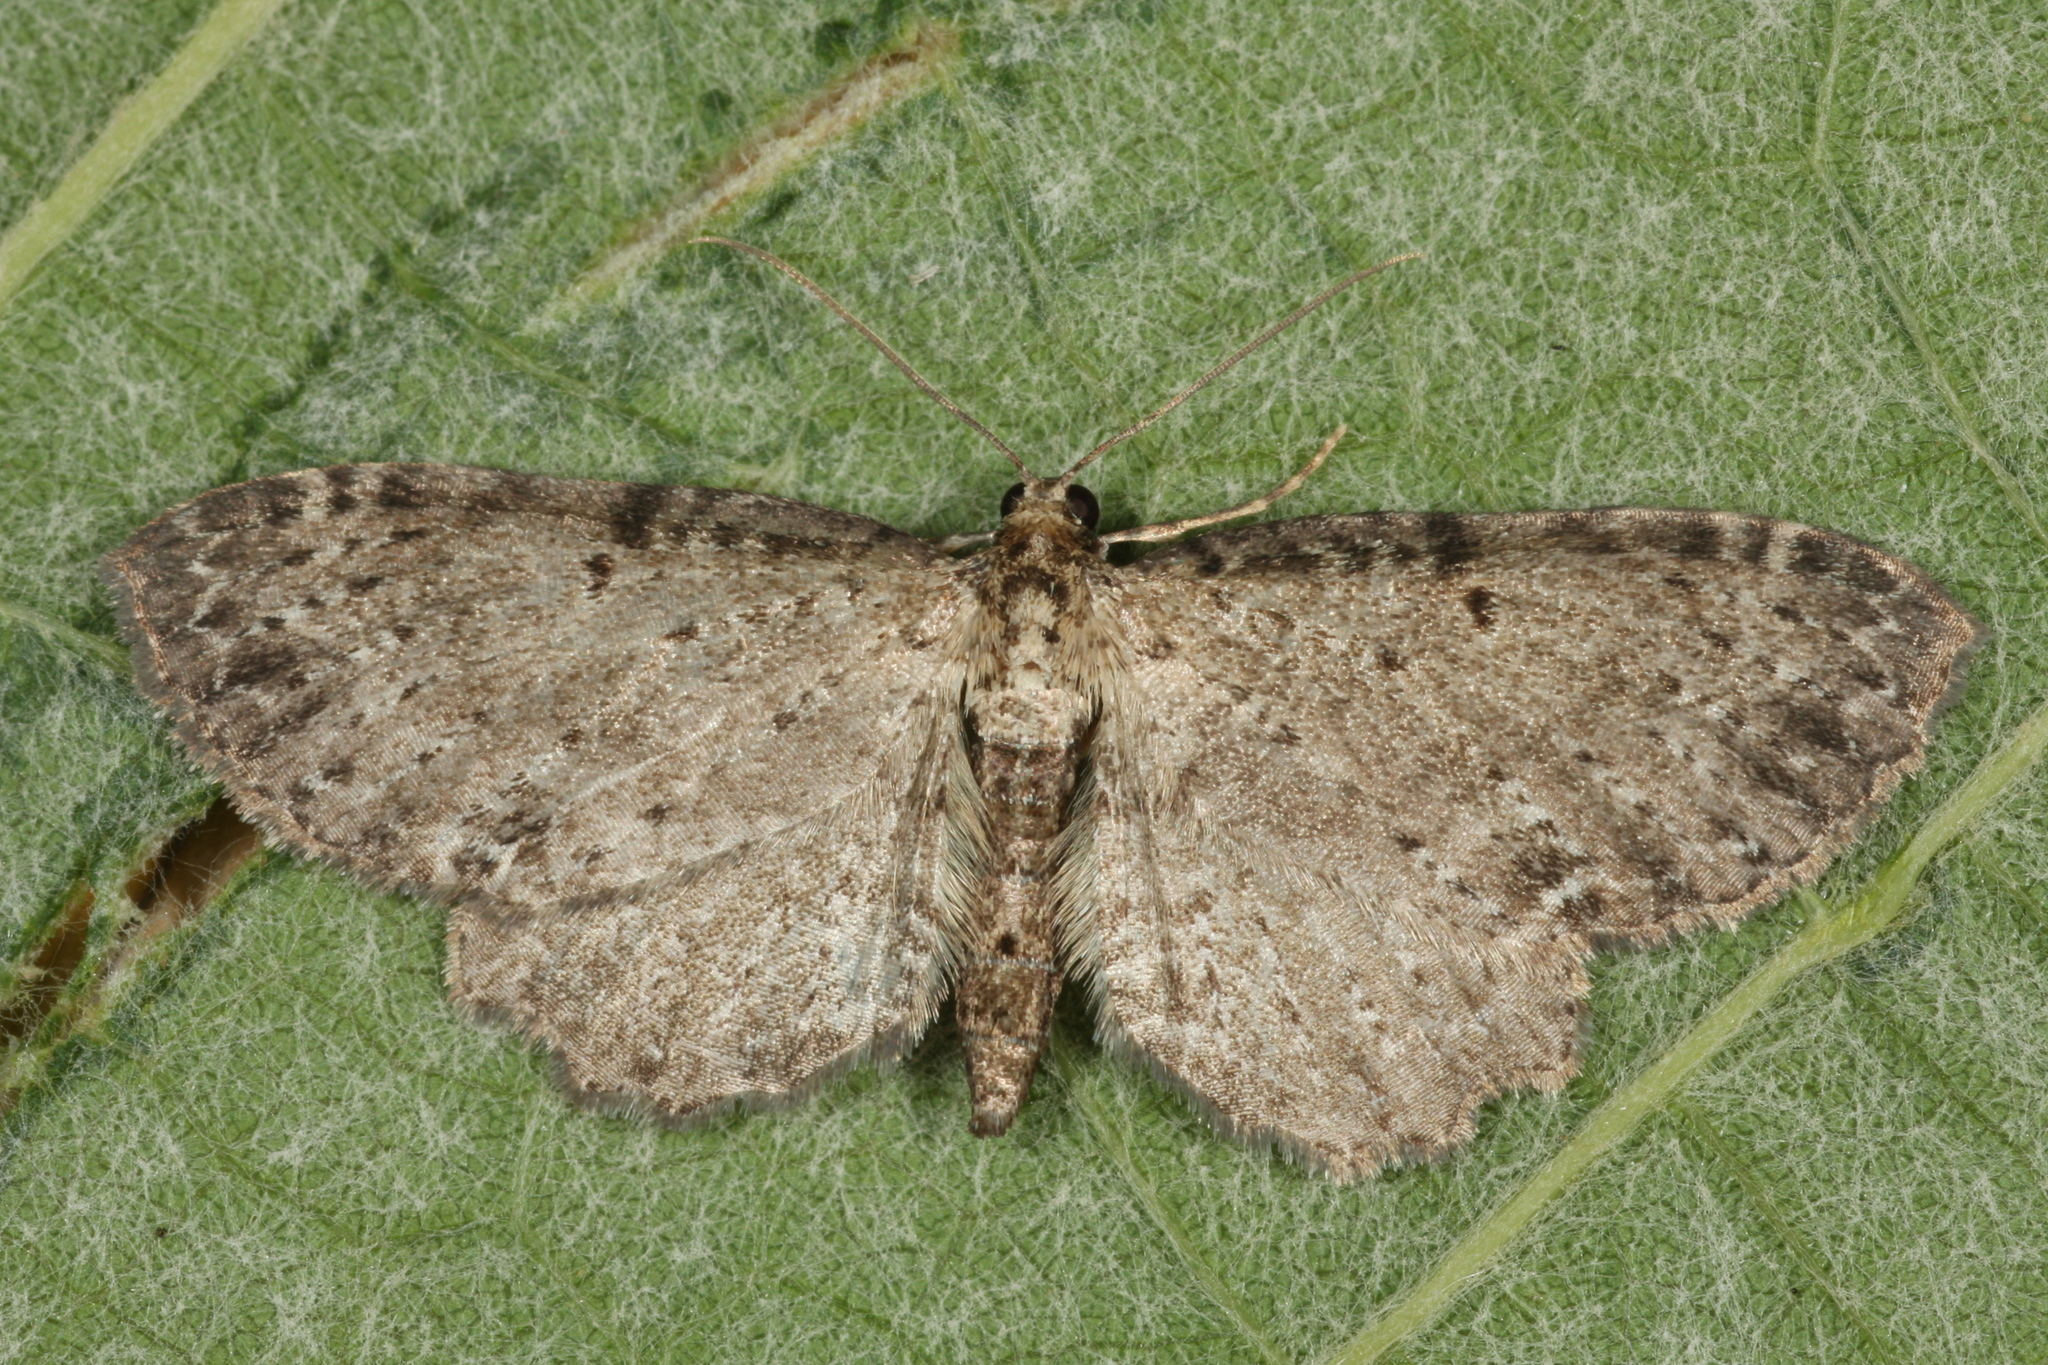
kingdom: Animalia
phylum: Arthropoda
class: Insecta
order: Lepidoptera
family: Geometridae
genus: Anticollix
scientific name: Anticollix sparsata
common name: Dentated pug
